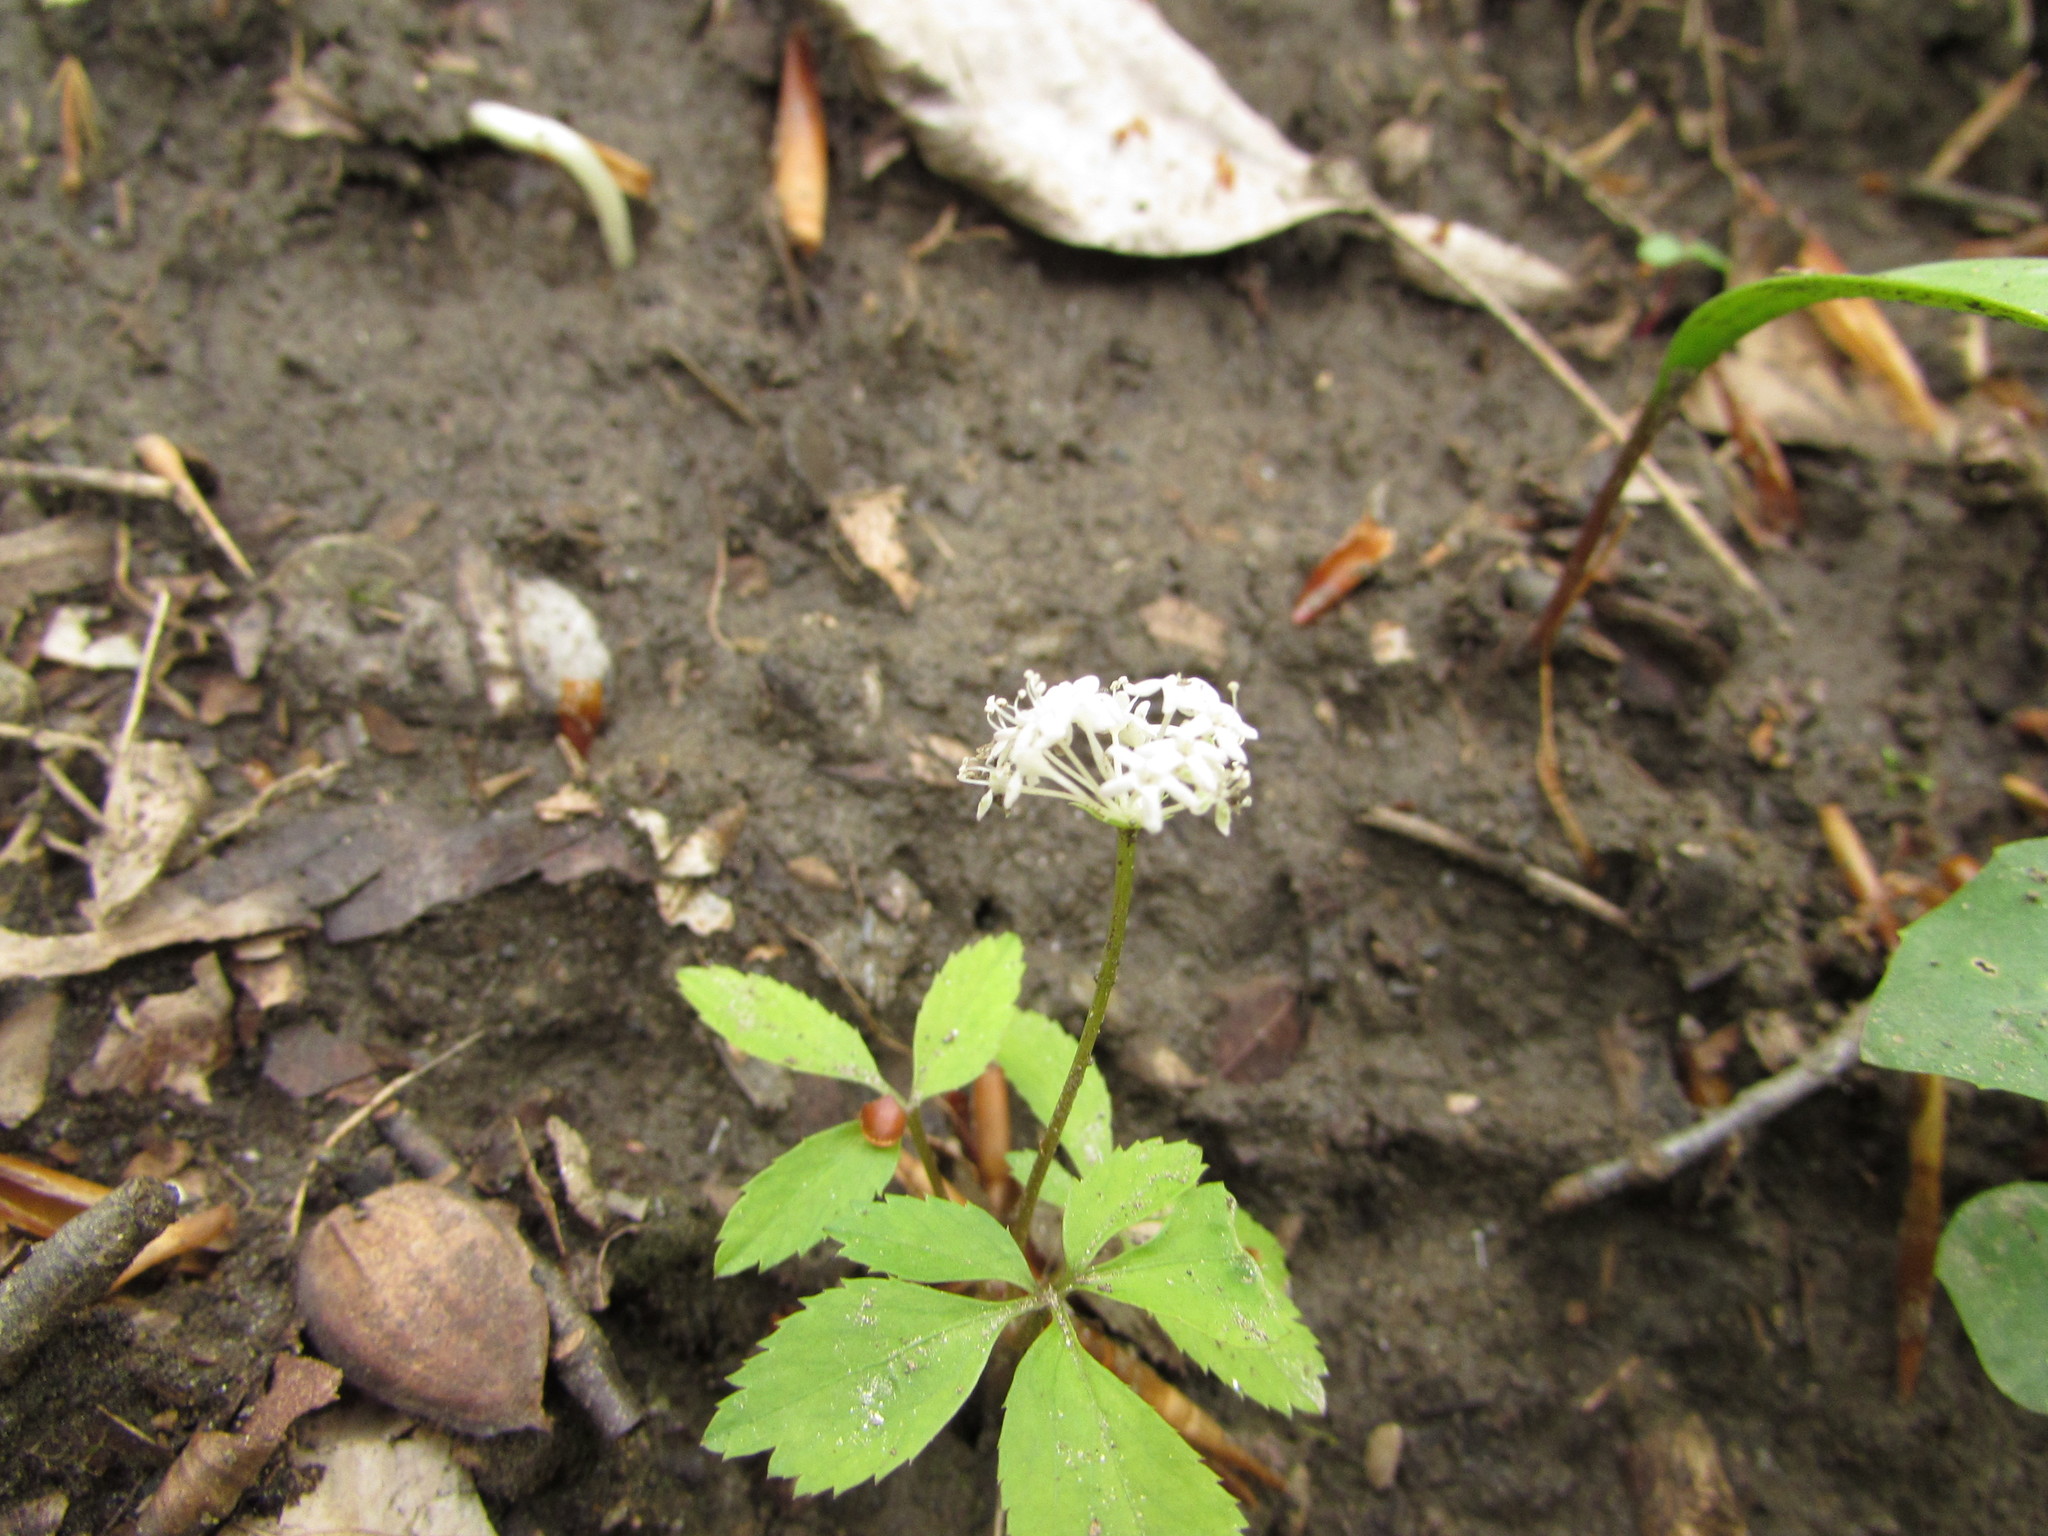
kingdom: Plantae
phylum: Tracheophyta
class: Magnoliopsida
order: Apiales
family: Araliaceae
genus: Panax
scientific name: Panax trifolius
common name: Dwarf ginseng
